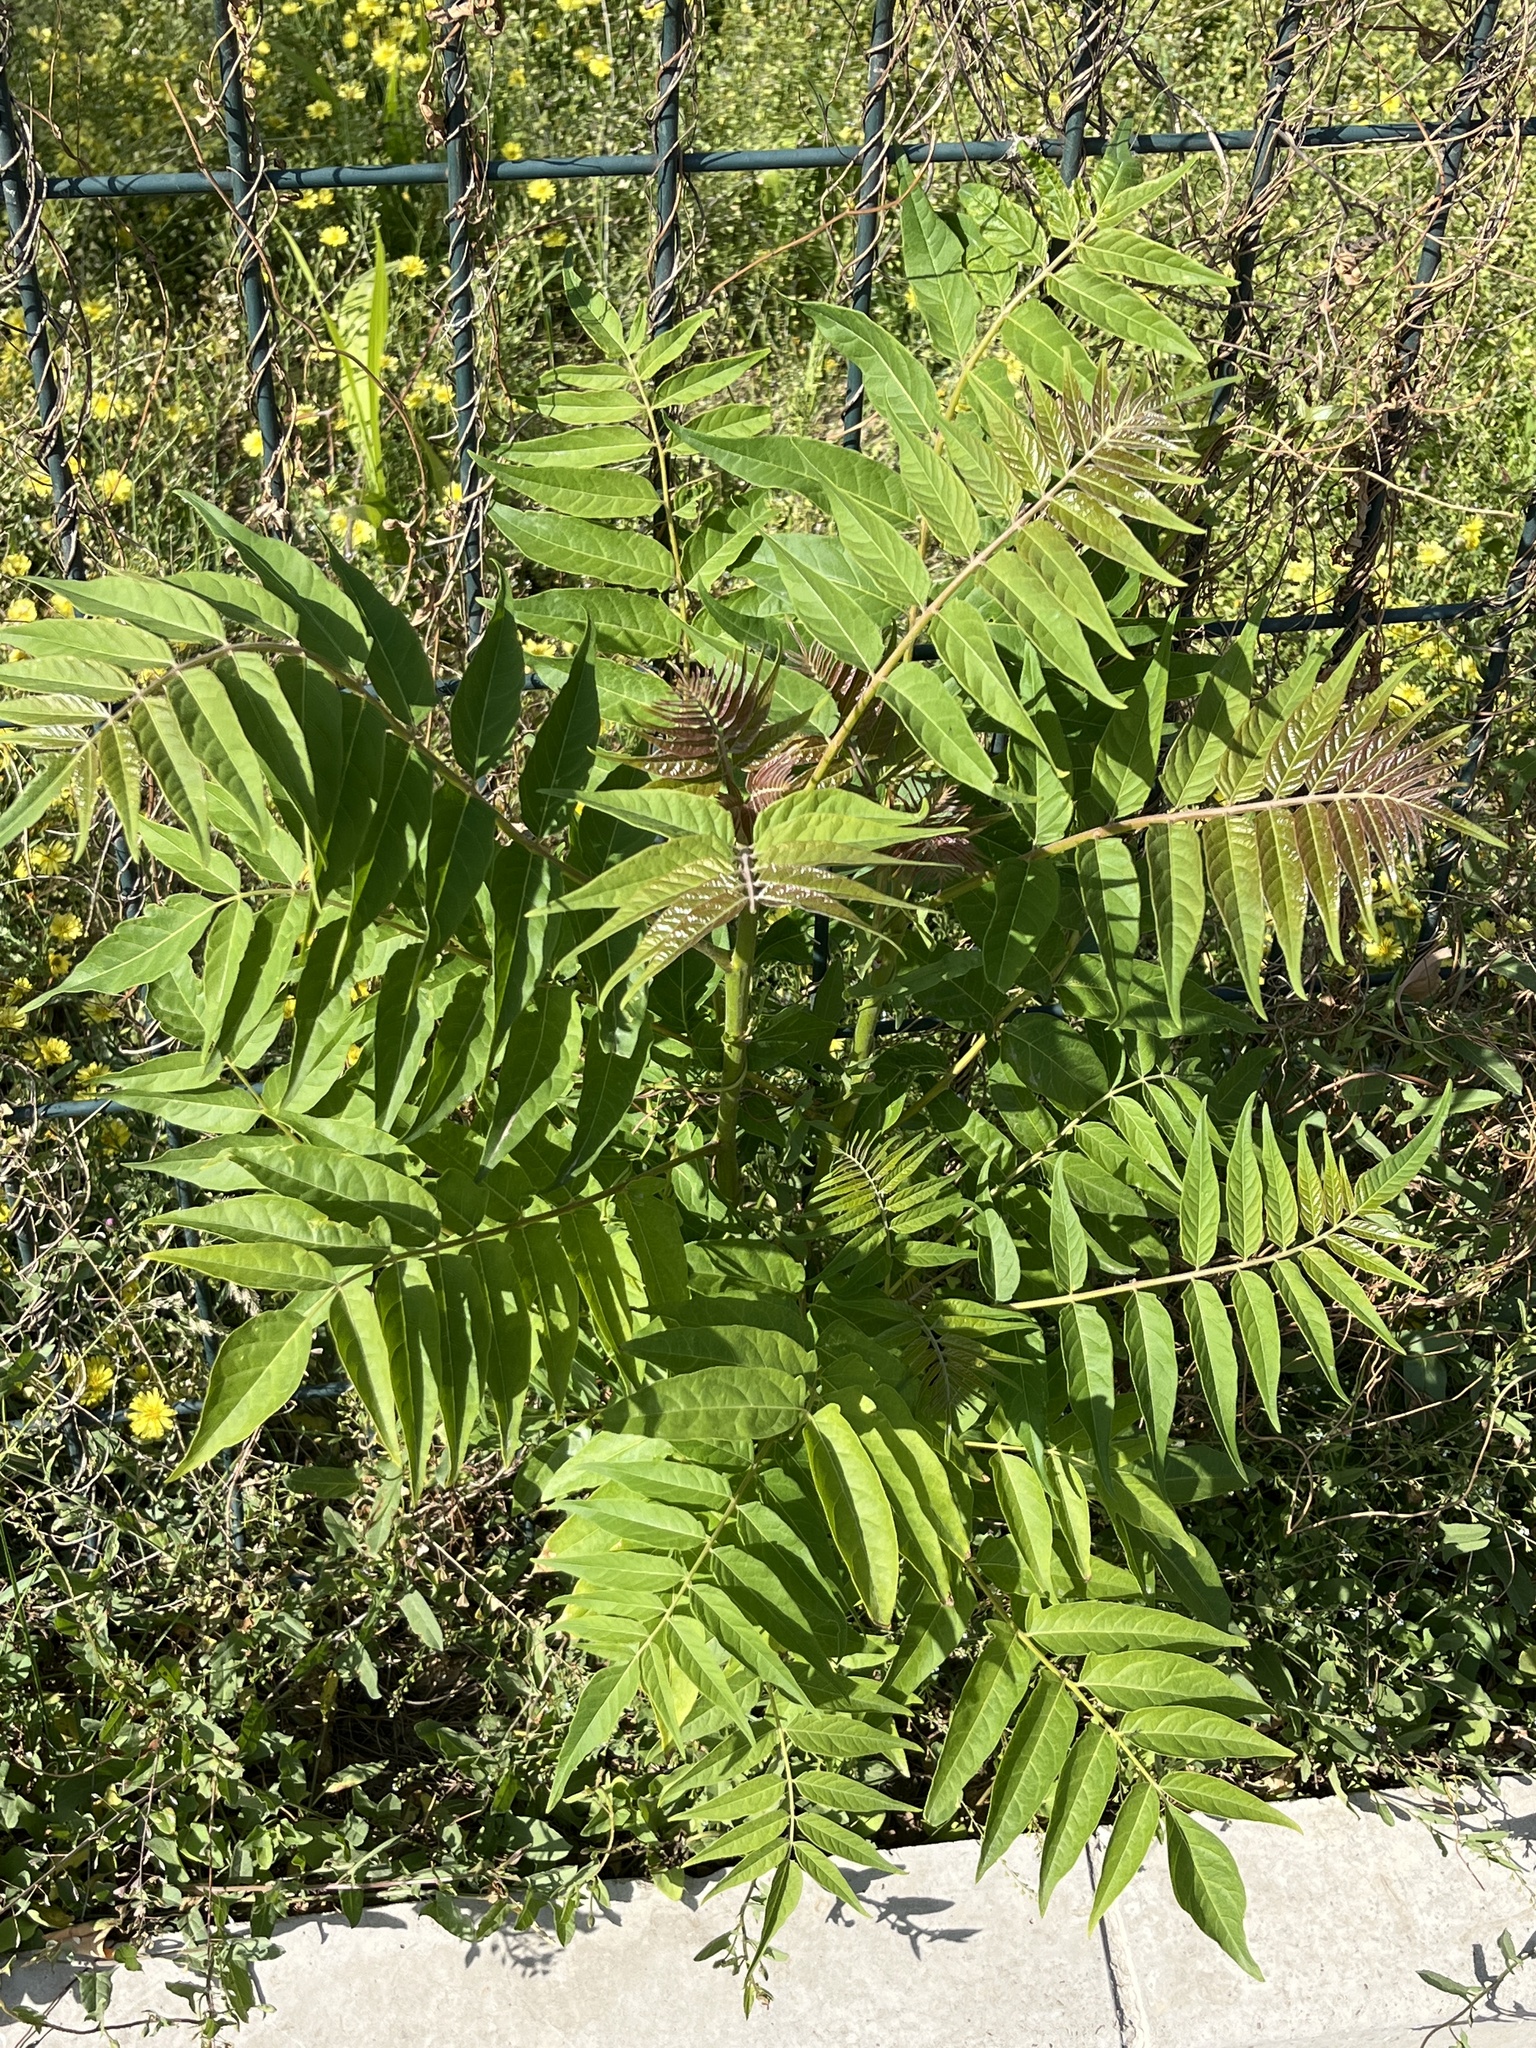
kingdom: Plantae
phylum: Tracheophyta
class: Magnoliopsida
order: Sapindales
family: Simaroubaceae
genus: Ailanthus
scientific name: Ailanthus altissima
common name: Tree-of-heaven
